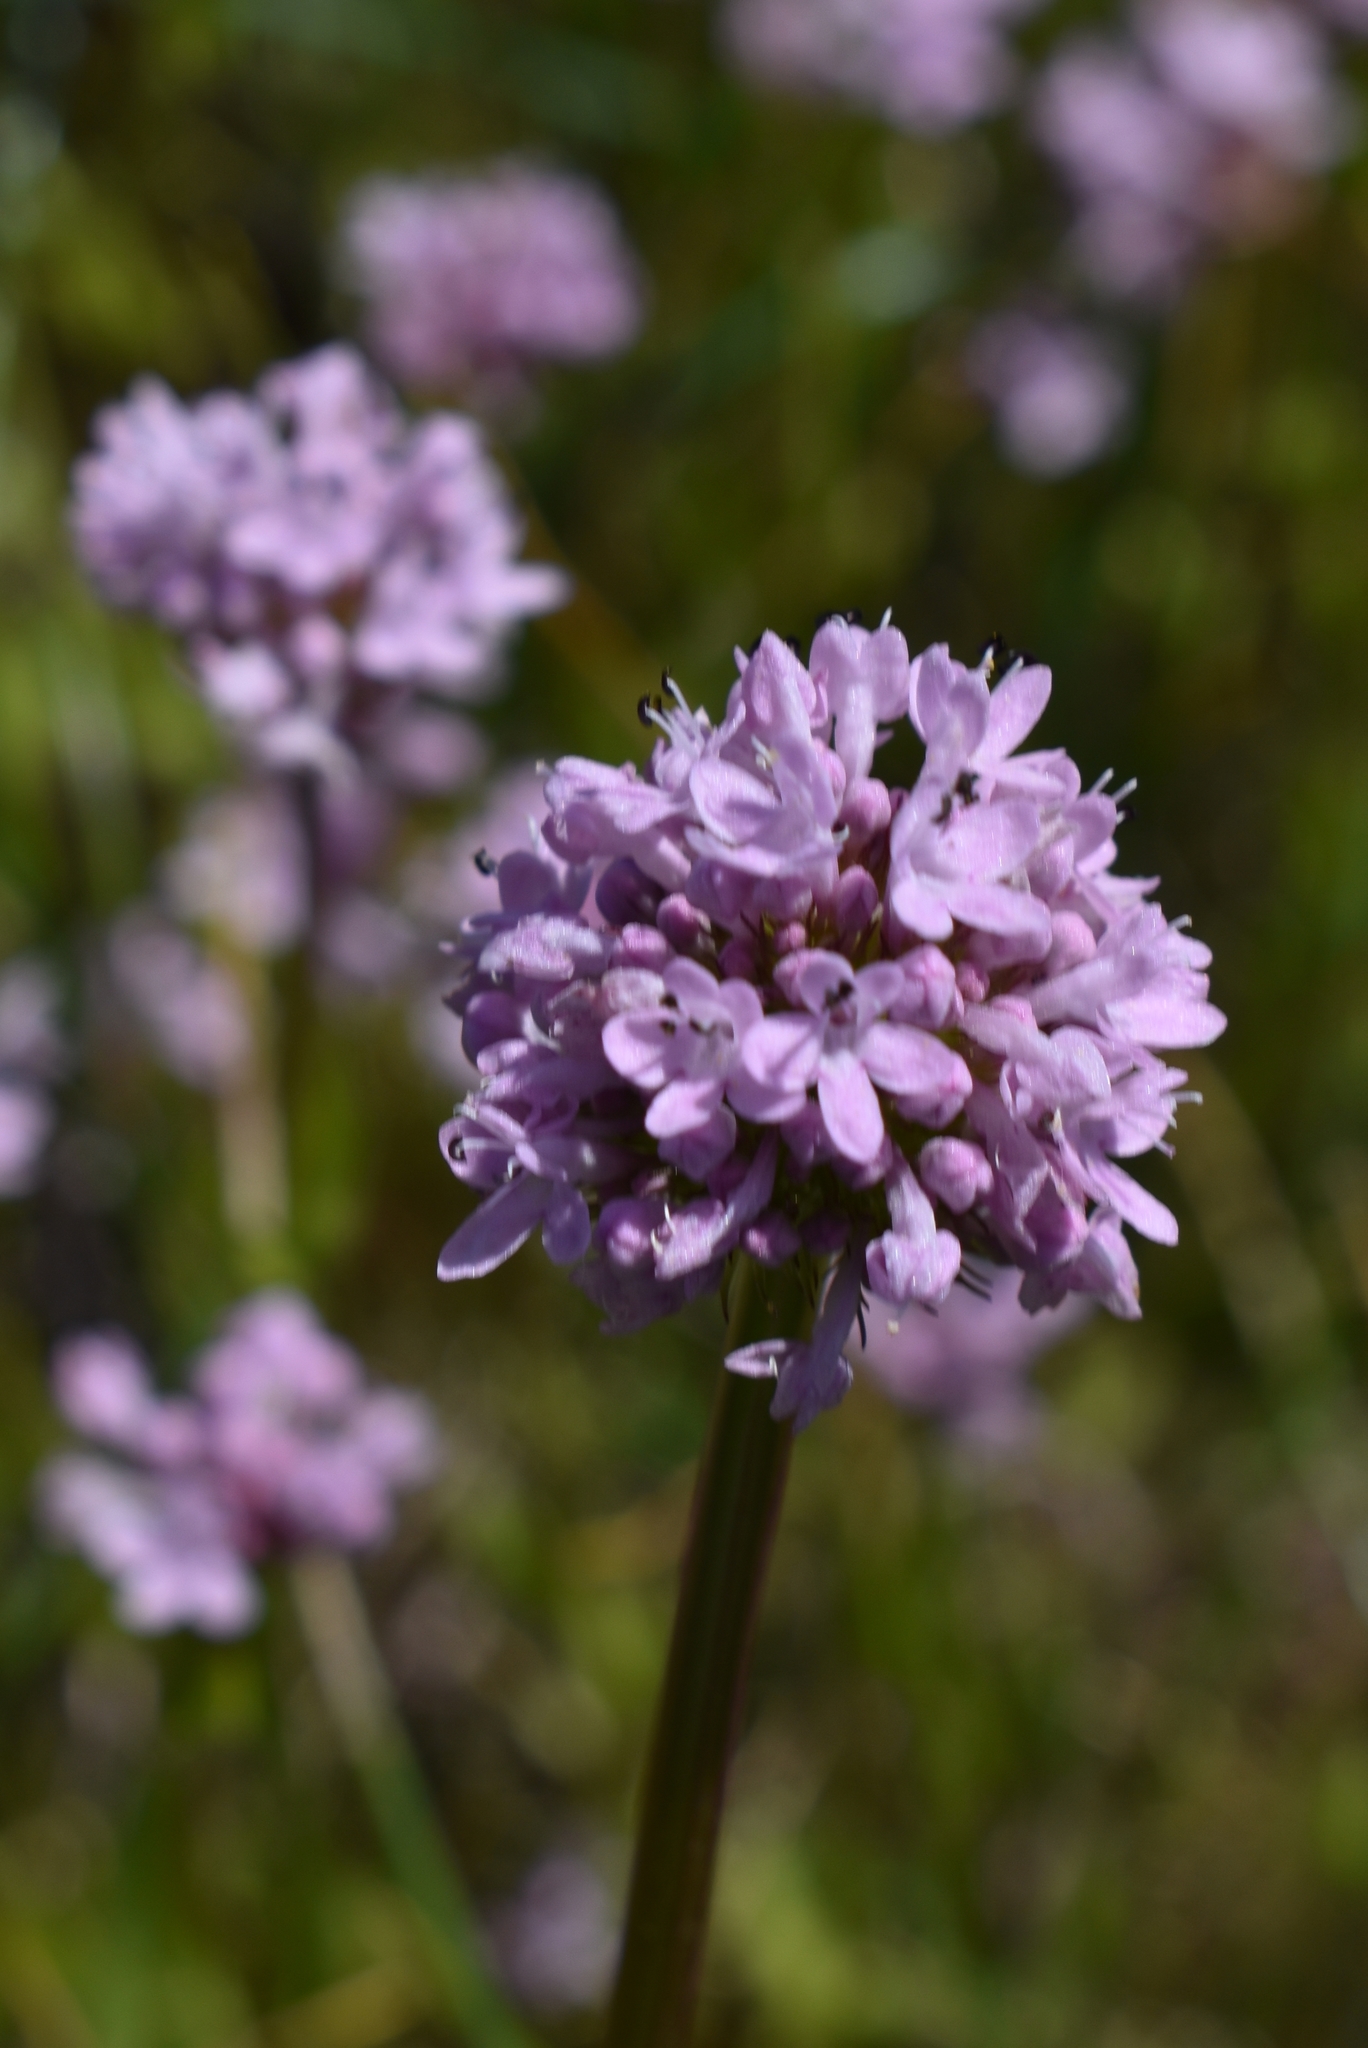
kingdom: Plantae
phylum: Tracheophyta
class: Magnoliopsida
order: Dipsacales
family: Caprifoliaceae
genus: Plectritis
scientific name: Plectritis congesta
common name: Pink plectritis
